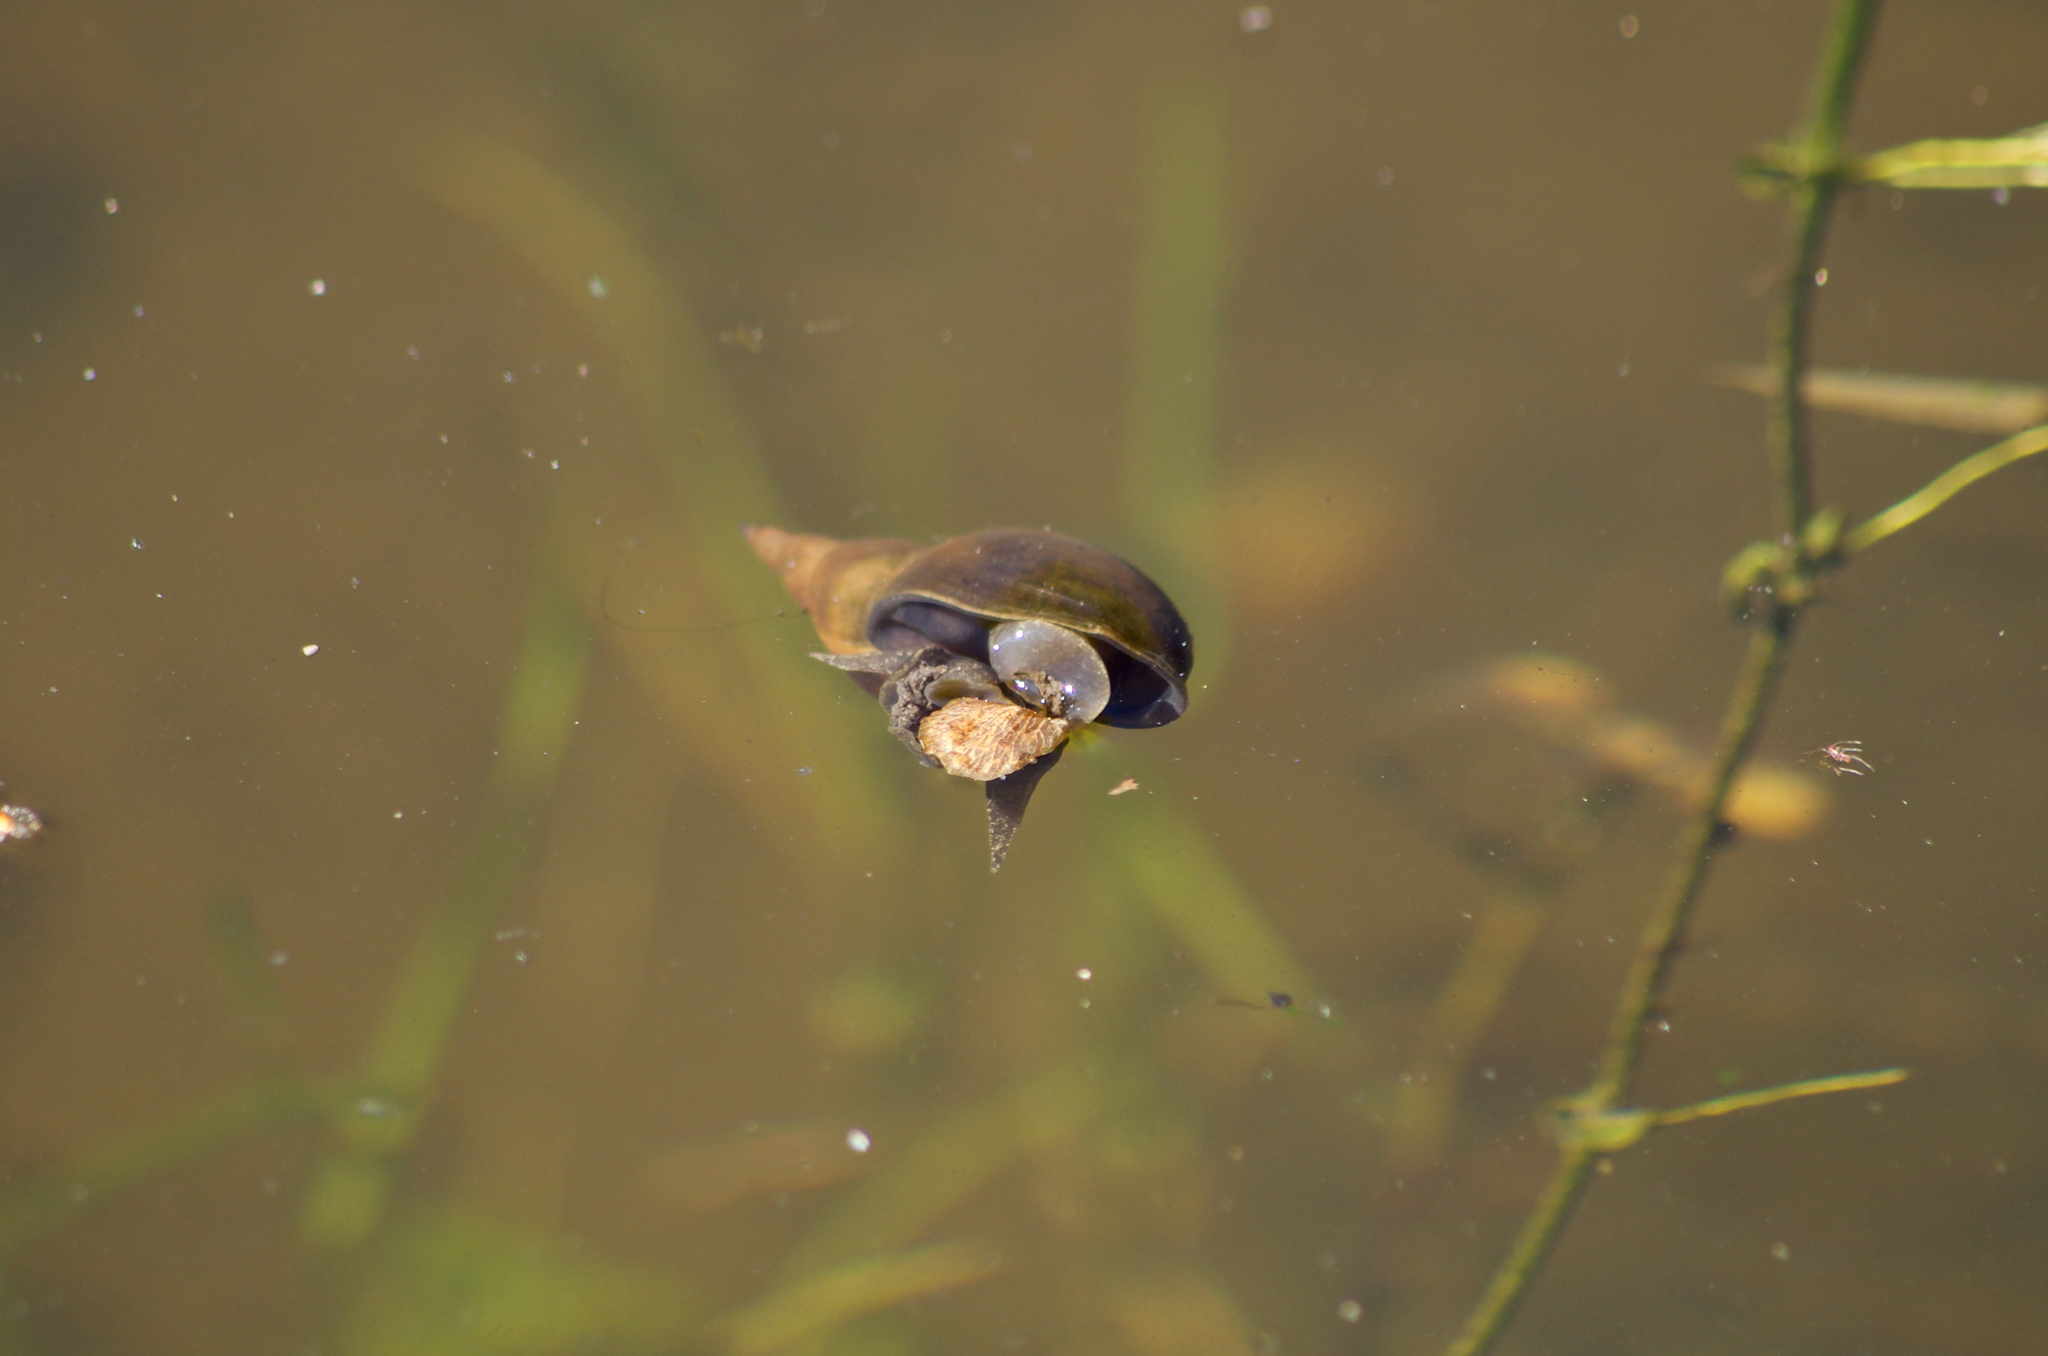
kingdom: Animalia
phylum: Mollusca
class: Gastropoda
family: Lymnaeidae
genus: Lymnaea
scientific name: Lymnaea stagnalis
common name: Great pond snail
